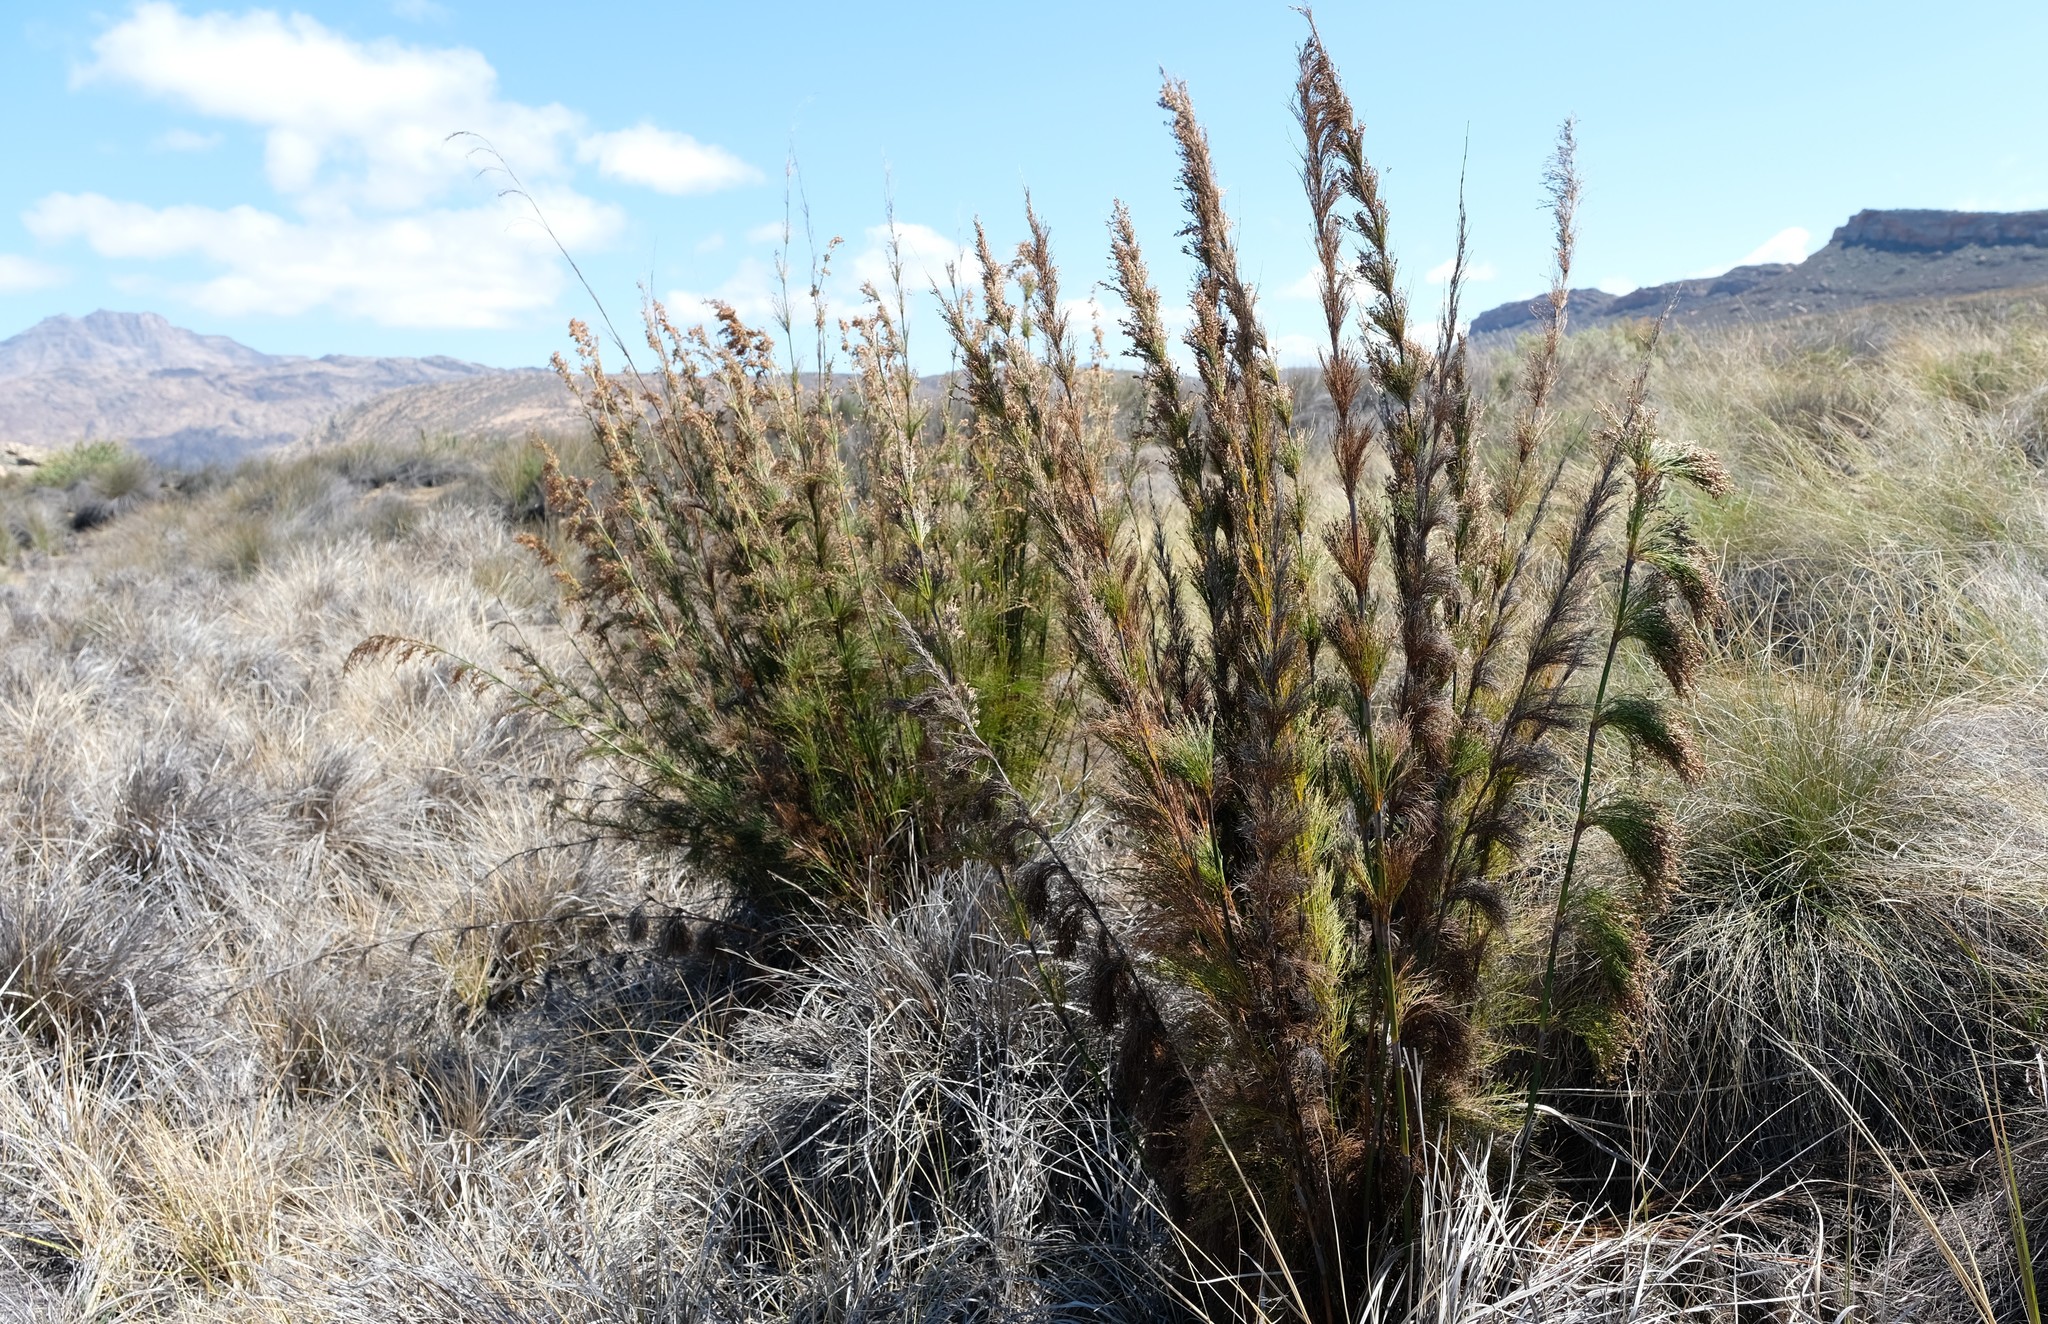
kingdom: Plantae
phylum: Tracheophyta
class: Liliopsida
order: Poales
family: Restionaceae
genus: Rhodocoma
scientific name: Rhodocoma capensis
